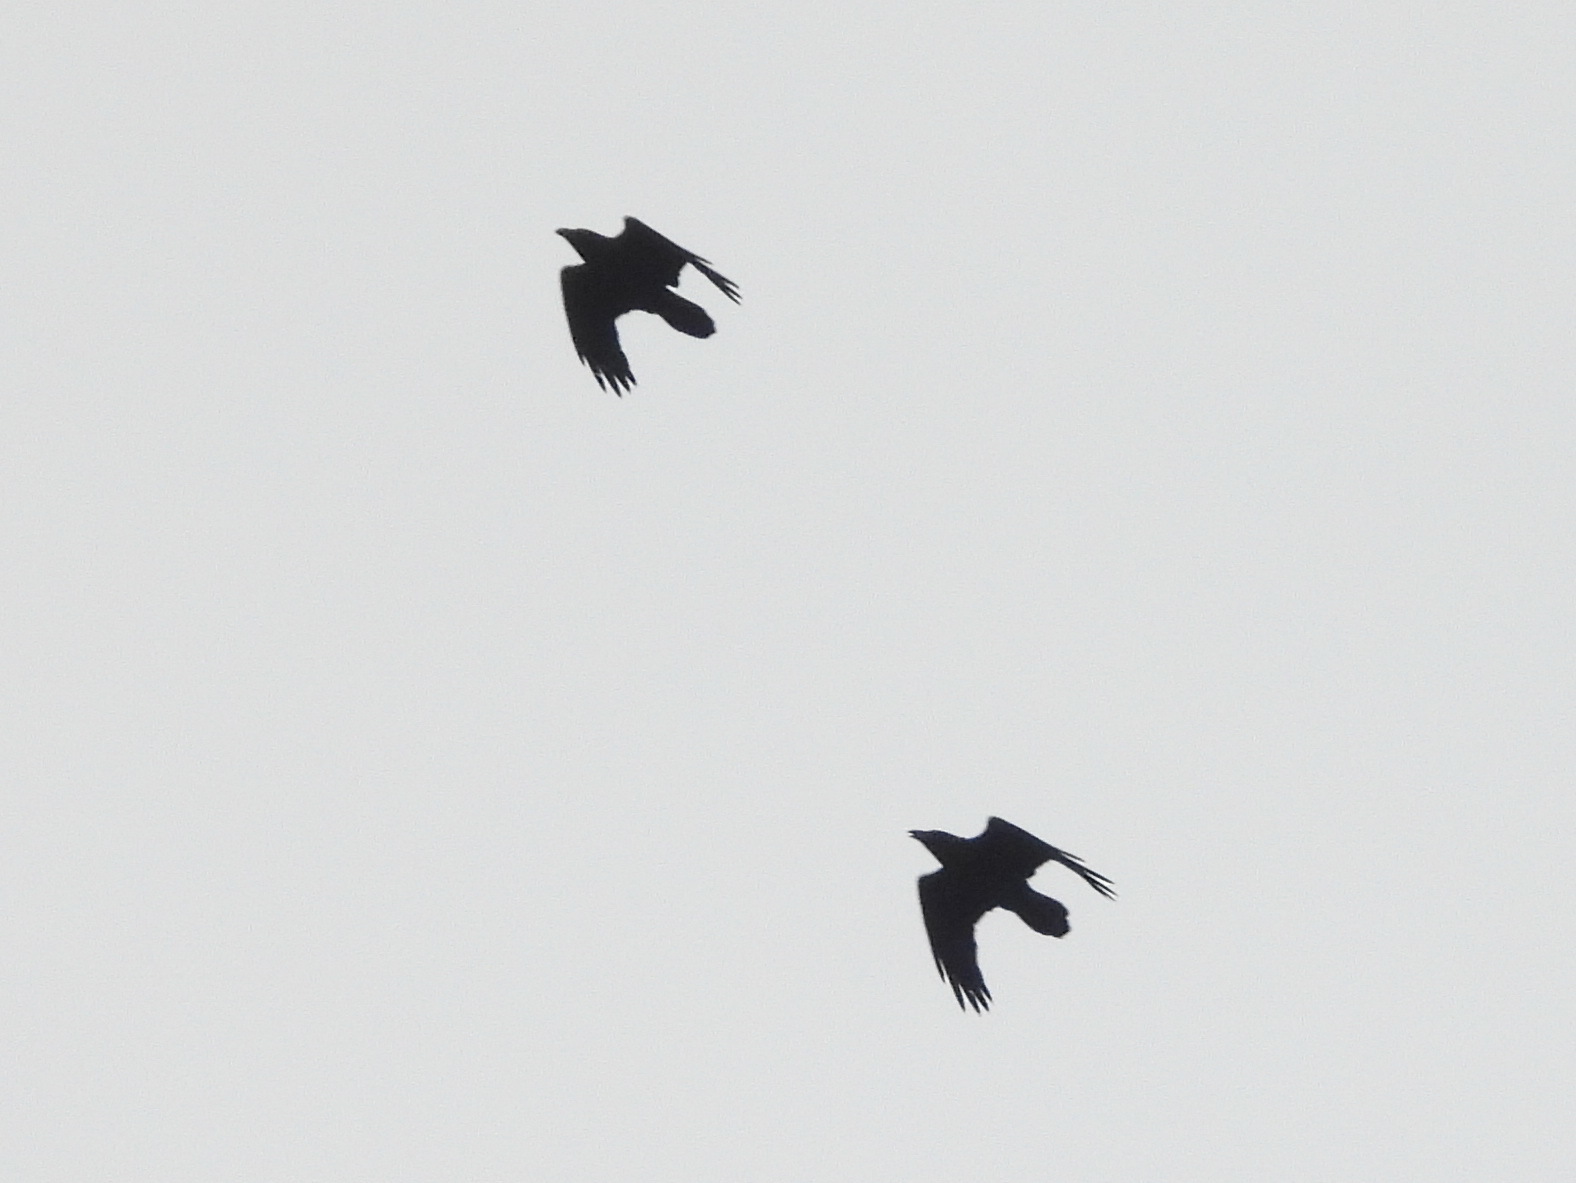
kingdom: Animalia
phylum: Chordata
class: Aves
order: Passeriformes
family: Corvidae
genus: Corvus
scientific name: Corvus corax
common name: Common raven
